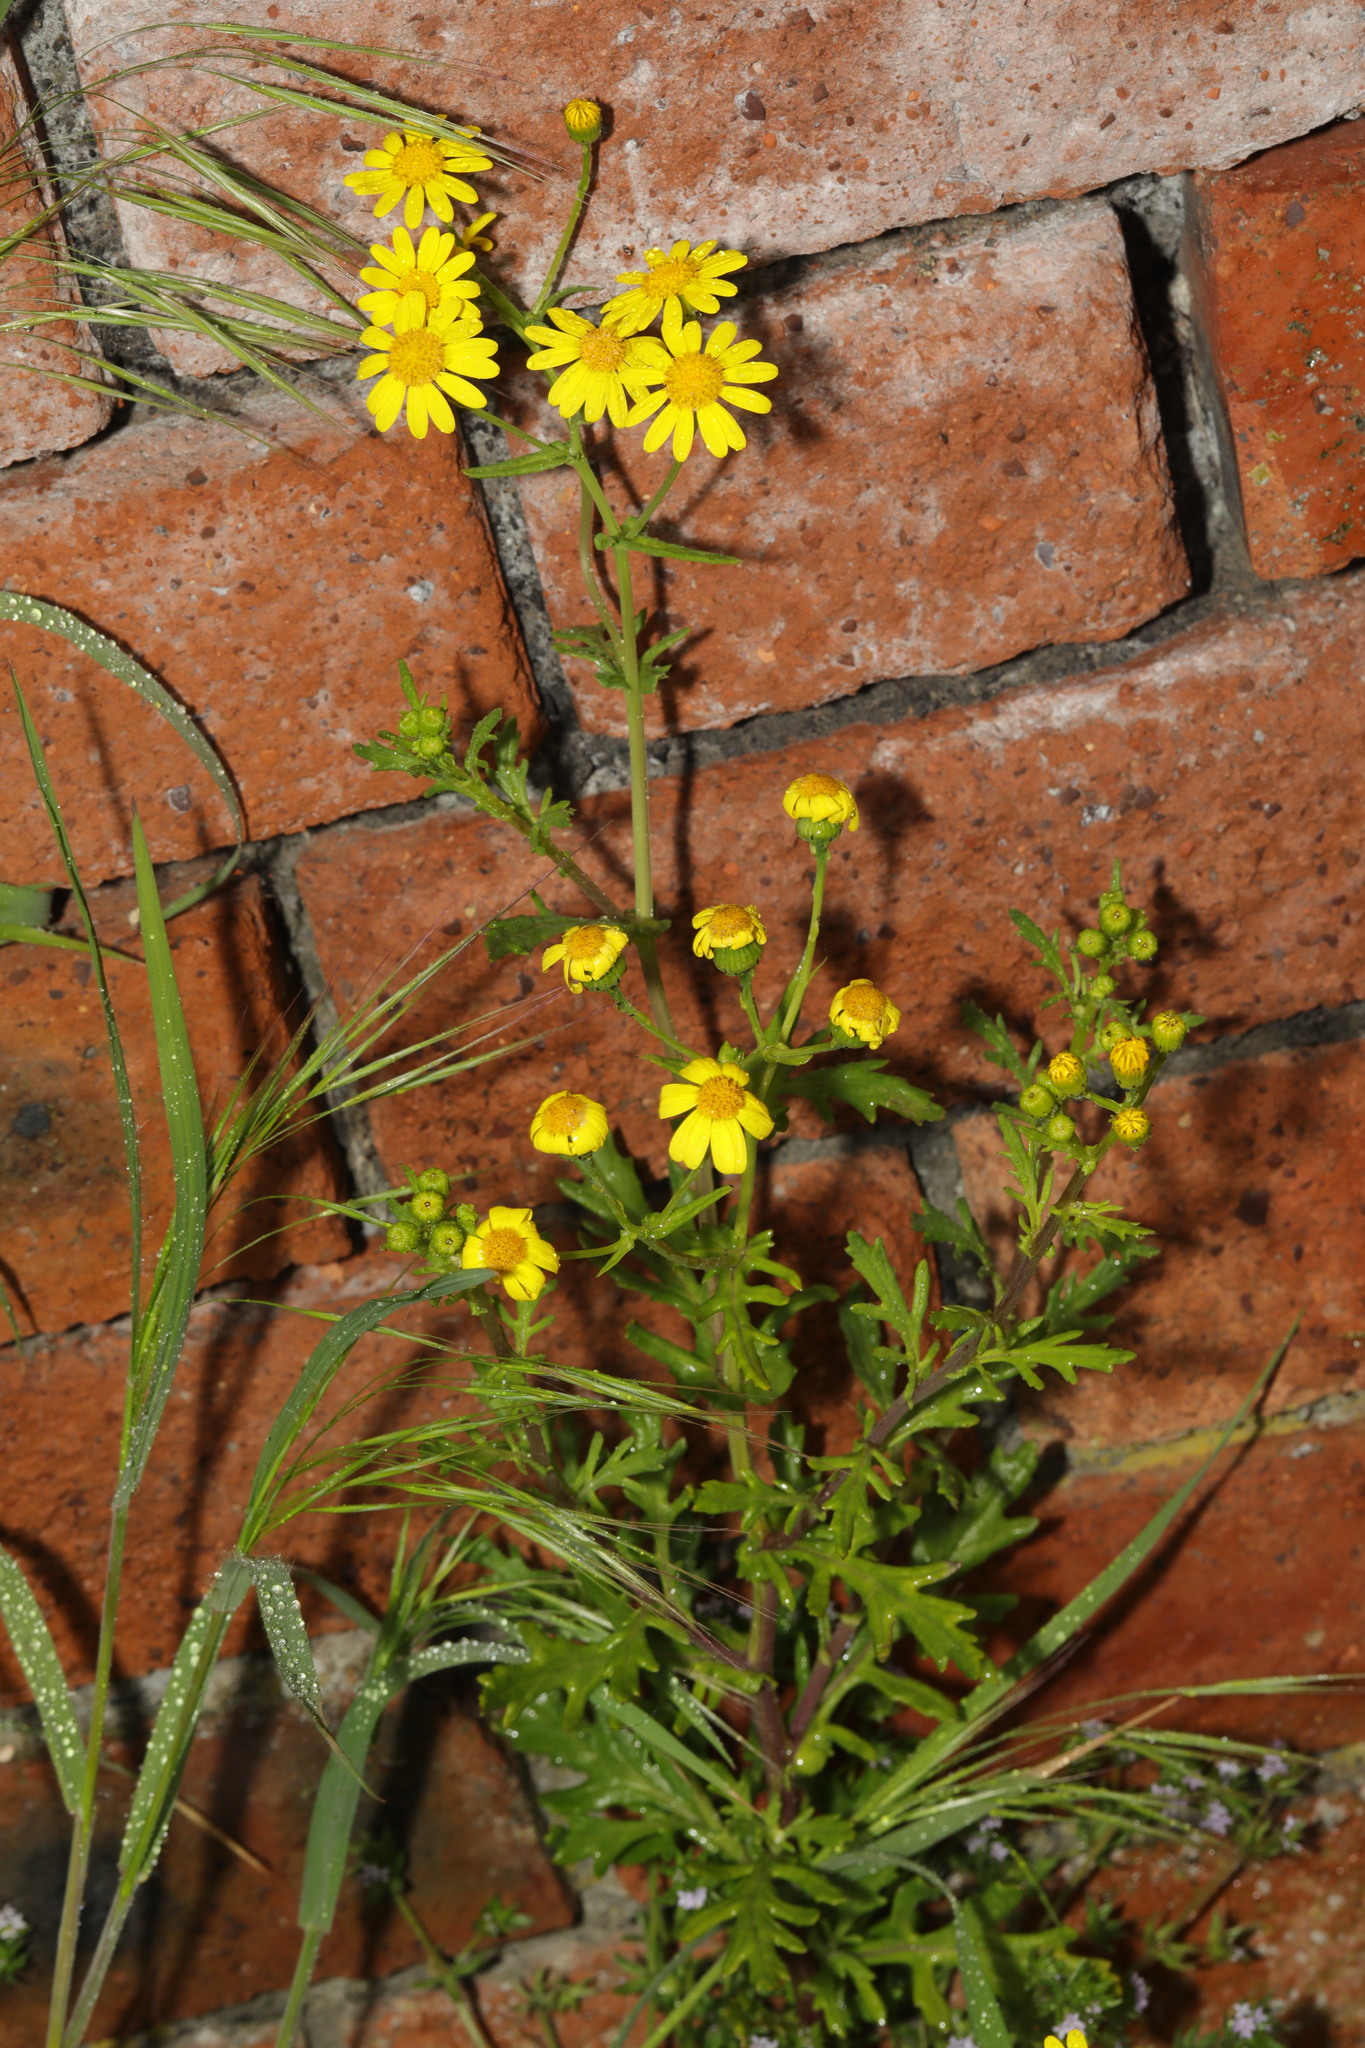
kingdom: Plantae
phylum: Tracheophyta
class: Magnoliopsida
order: Asterales
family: Asteraceae
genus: Senecio
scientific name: Senecio squalidus
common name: Oxford ragwort
